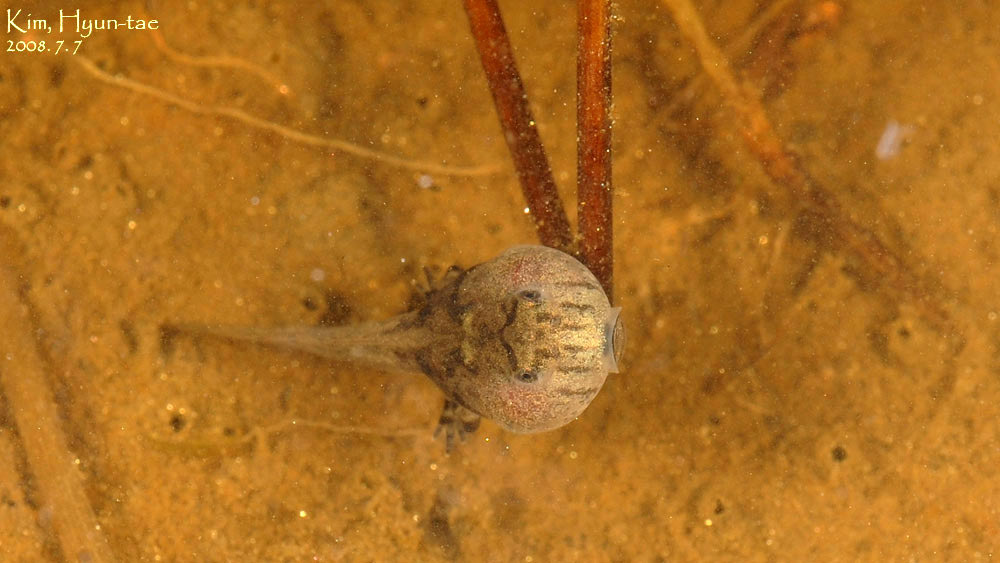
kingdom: Animalia
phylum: Chordata
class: Amphibia
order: Anura
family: Bombinatoridae
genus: Bombina
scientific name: Bombina orientalis
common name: Oriental firebelly toad
